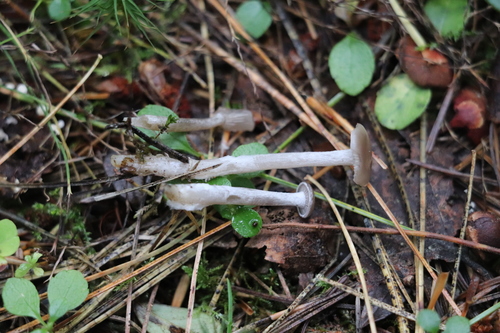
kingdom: Fungi
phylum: Basidiomycota
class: Agaricomycetes
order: Agaricales
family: Tricholomataceae
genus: Clitocybe
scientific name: Clitocybe
